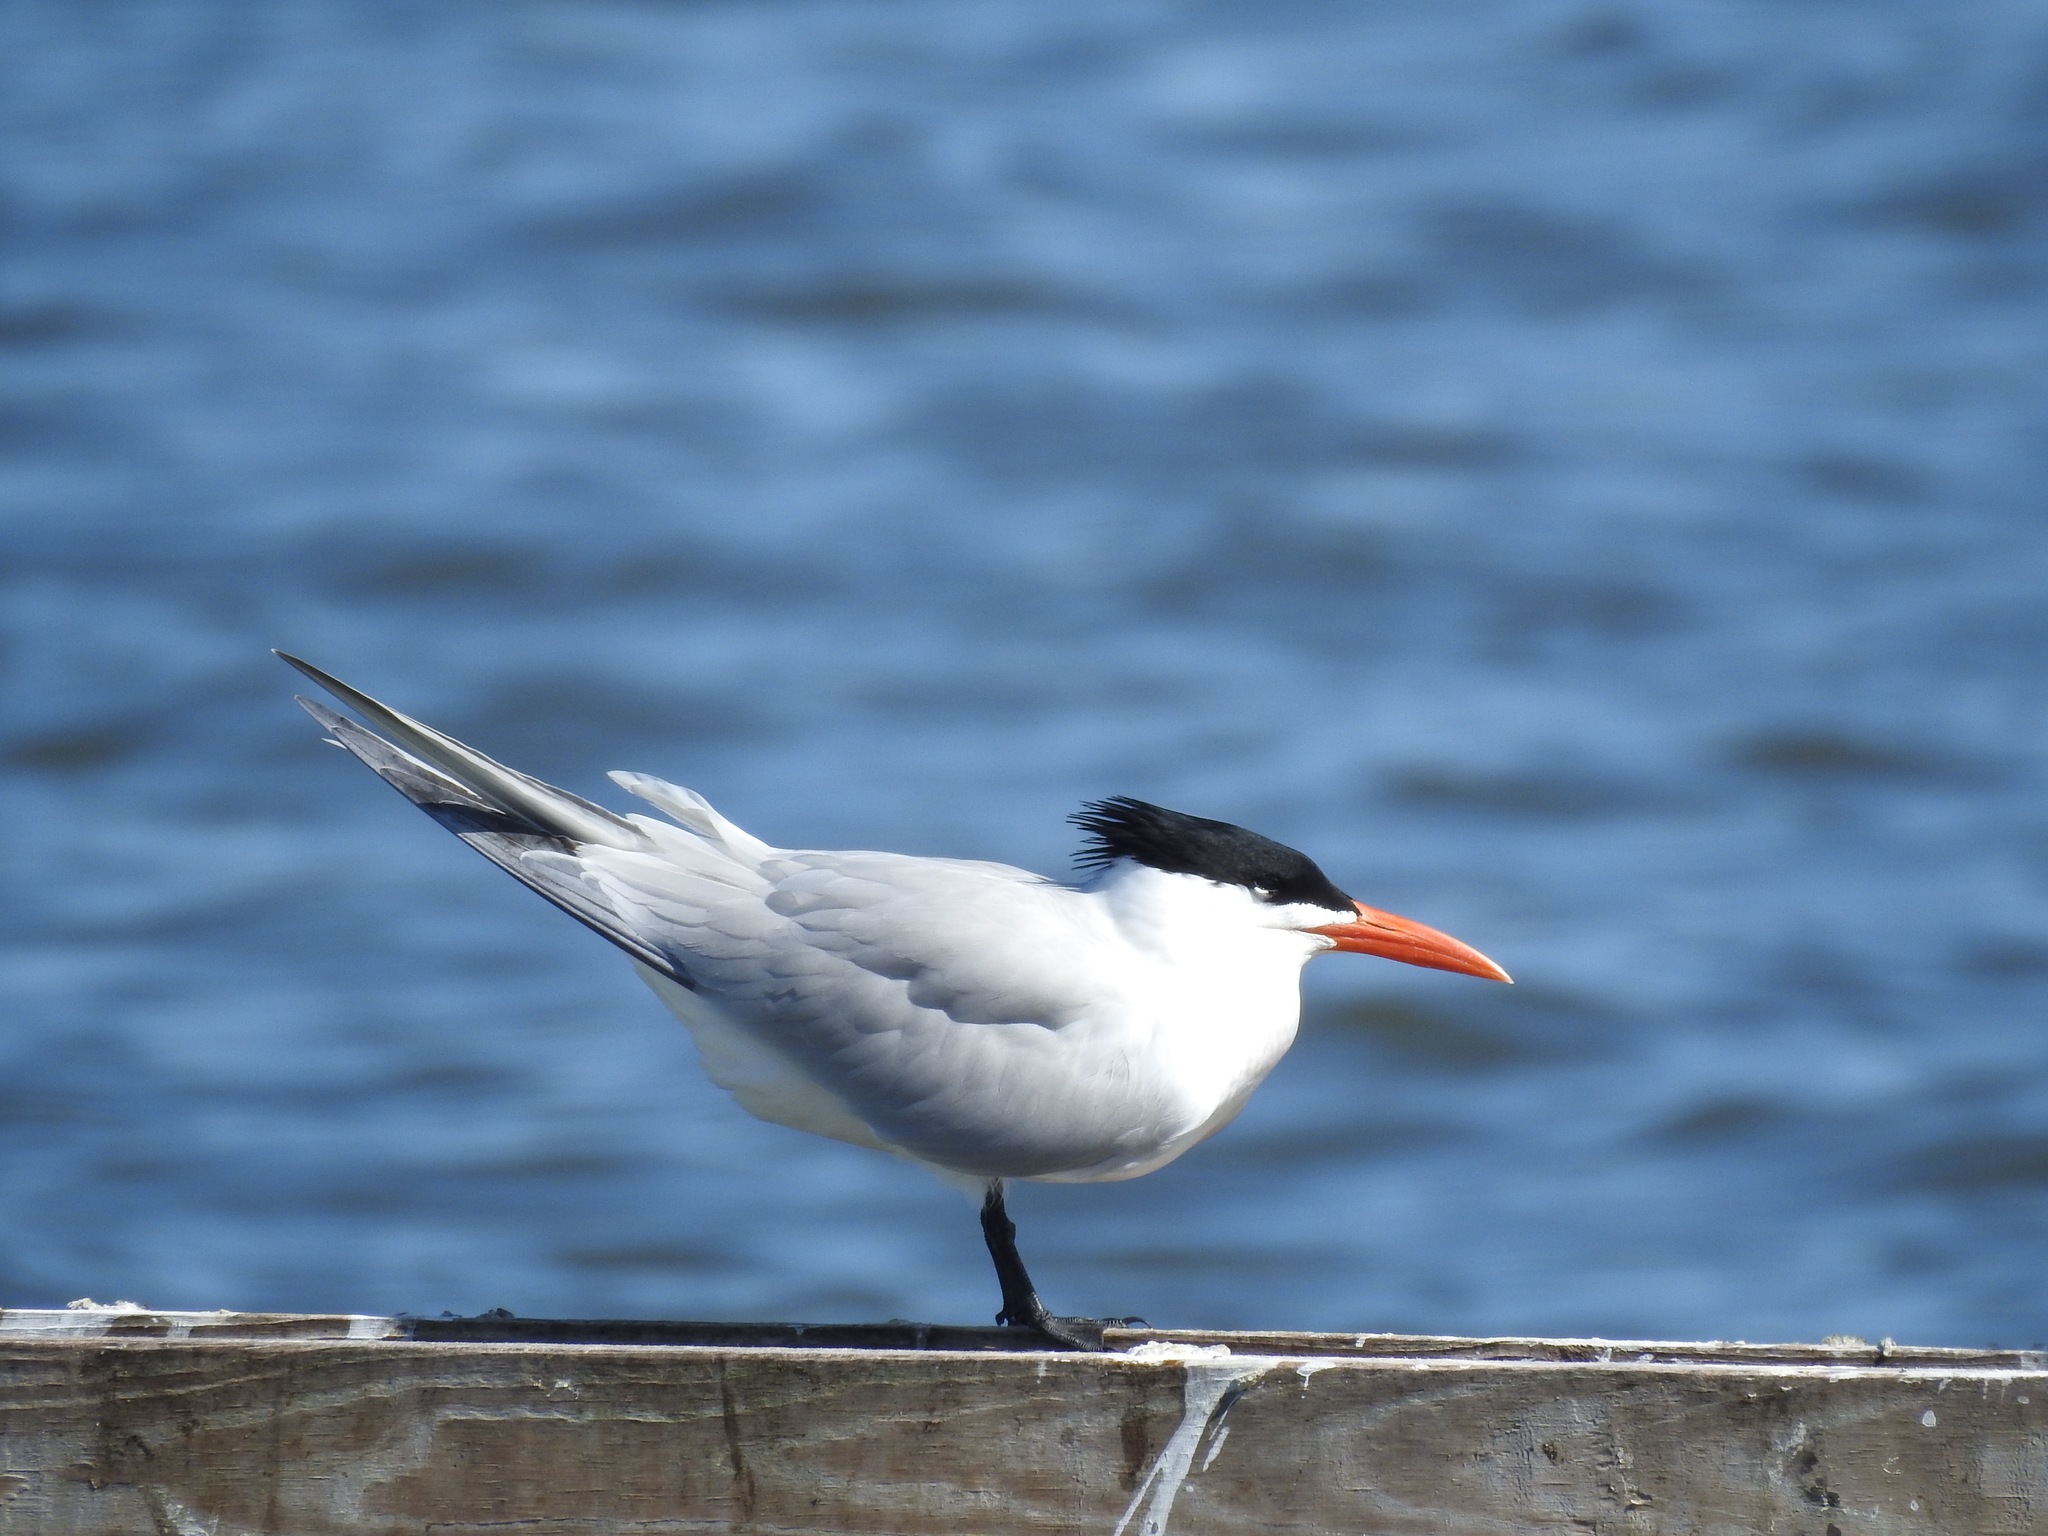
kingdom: Animalia
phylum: Chordata
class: Aves
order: Charadriiformes
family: Laridae
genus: Thalasseus
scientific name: Thalasseus maximus
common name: Royal tern
